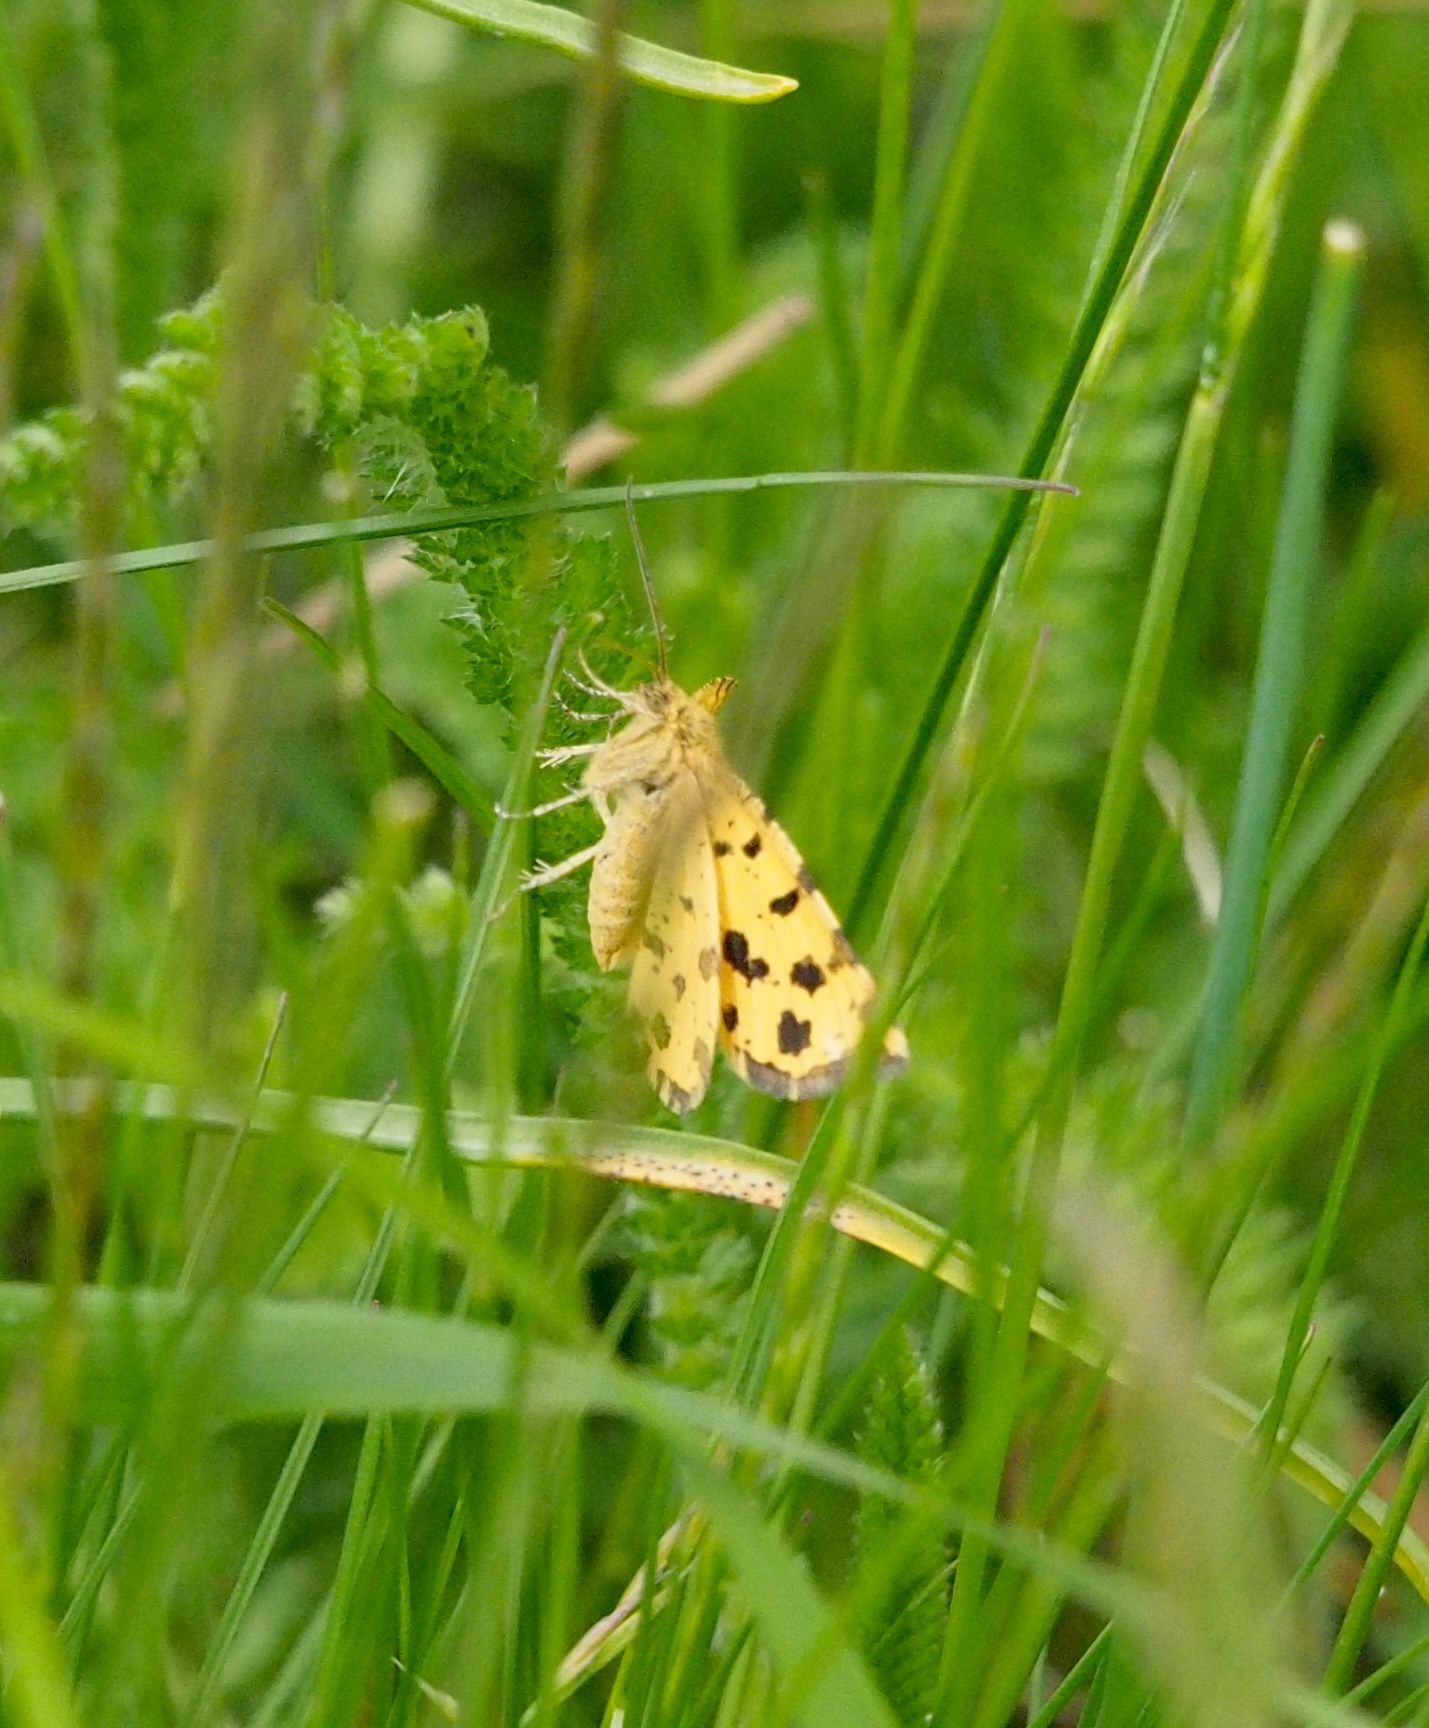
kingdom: Animalia
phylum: Arthropoda
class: Insecta
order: Lepidoptera
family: Geometridae
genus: Pseudopanthera
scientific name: Pseudopanthera macularia
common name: Speckled yellow
